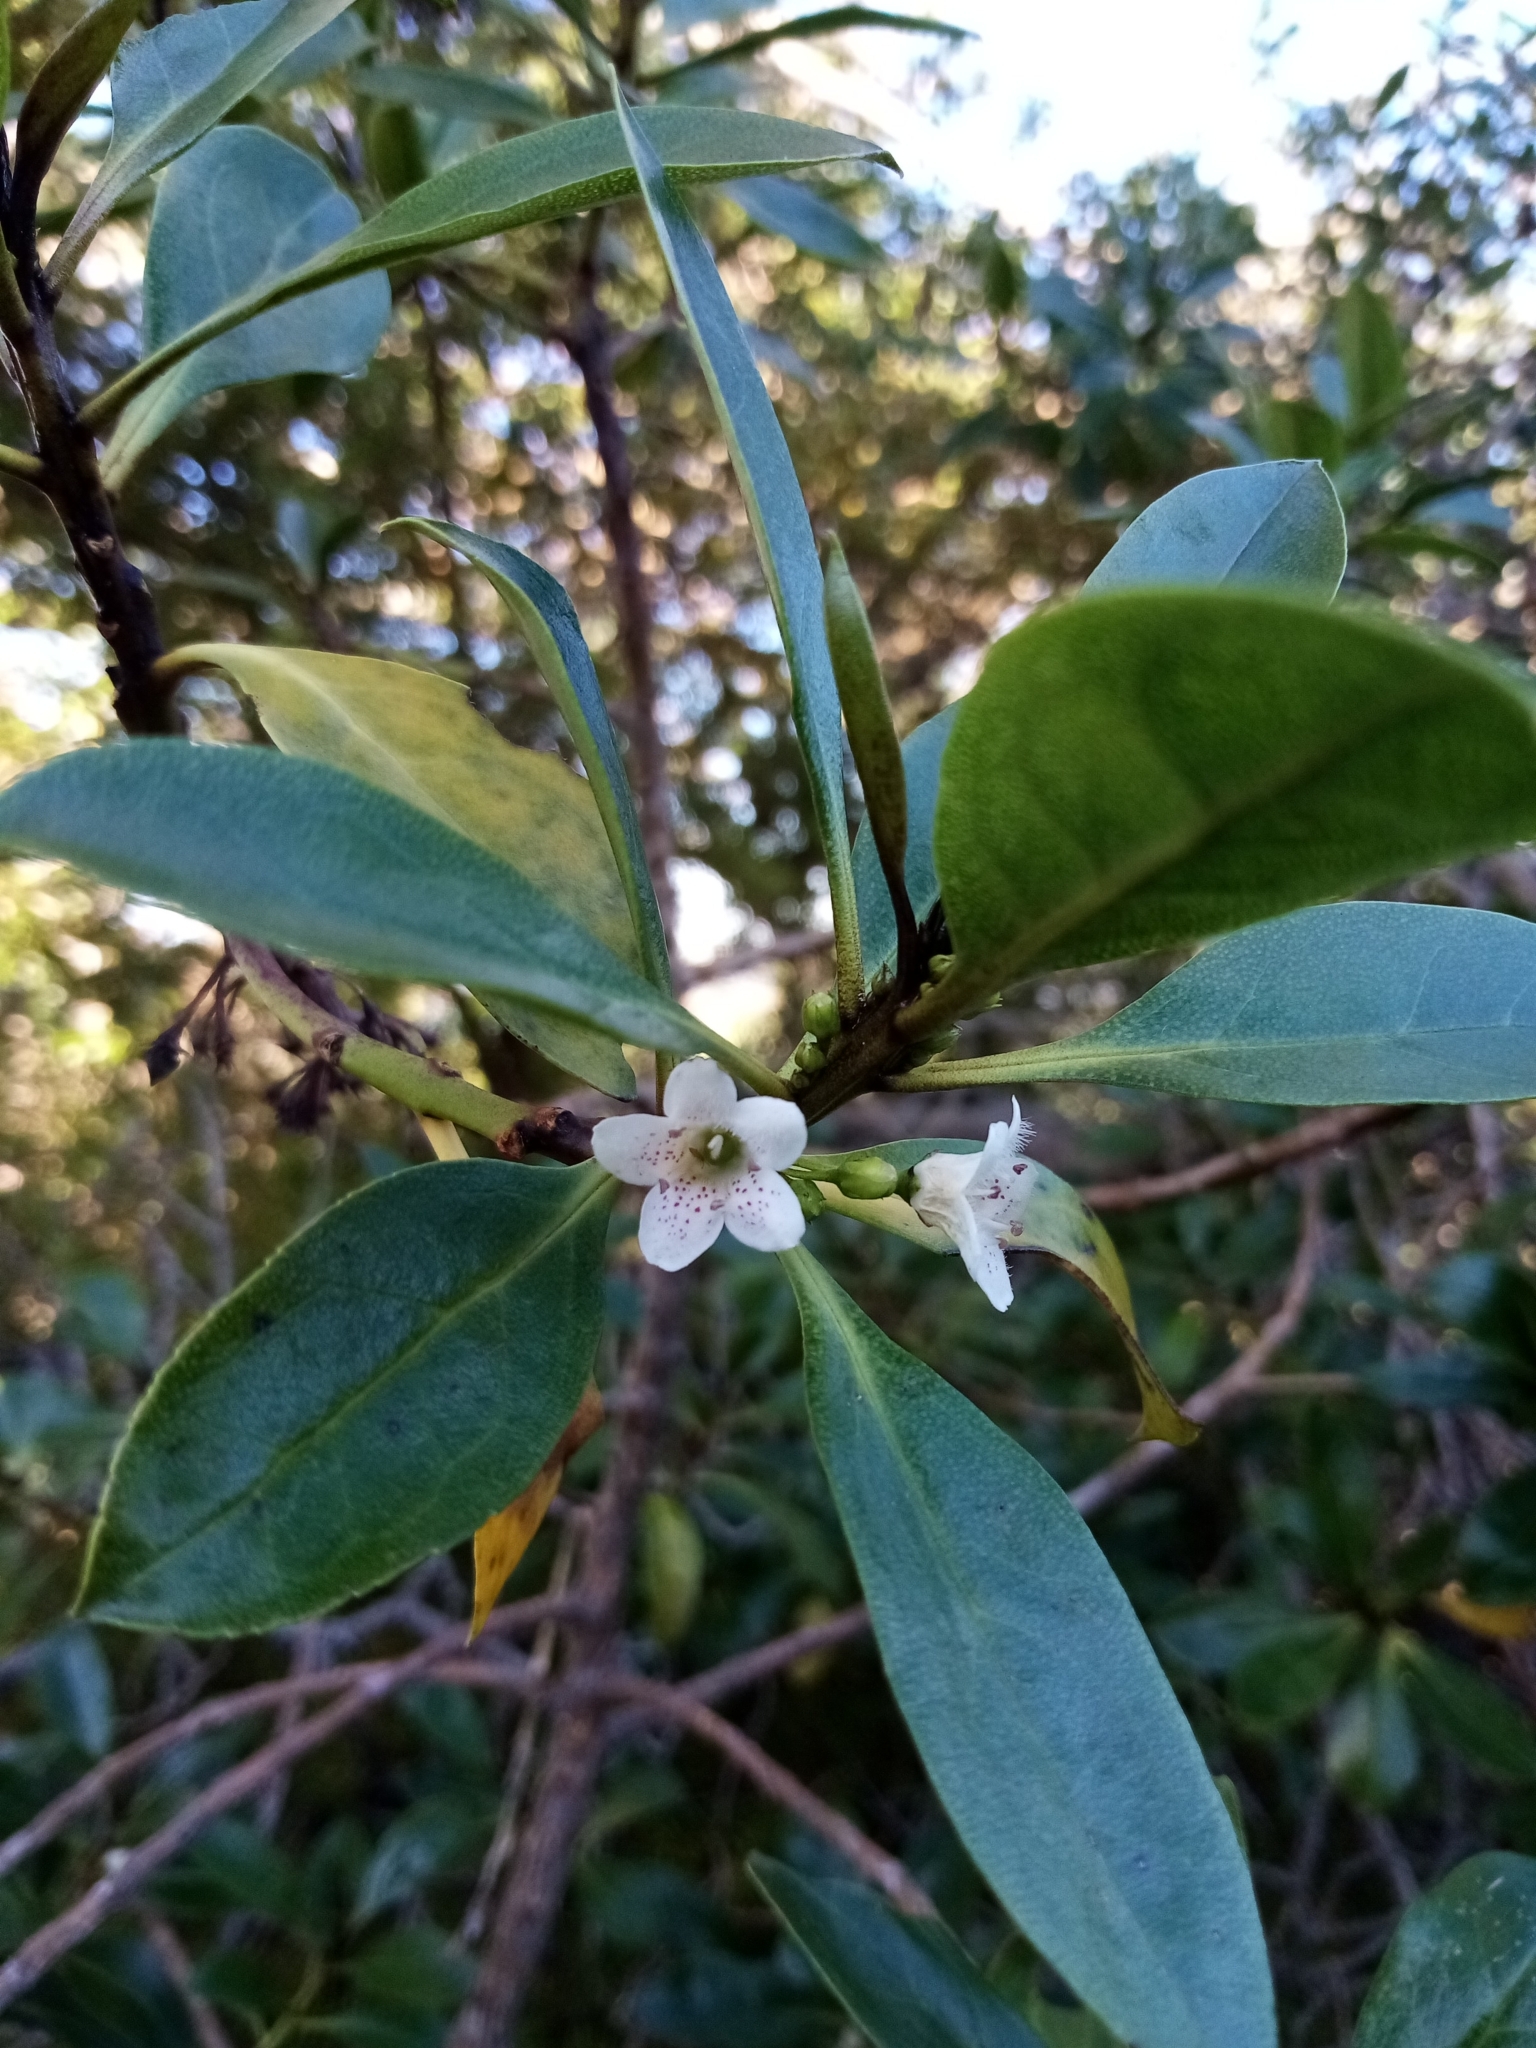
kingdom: Plantae
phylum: Tracheophyta
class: Magnoliopsida
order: Lamiales
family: Scrophulariaceae
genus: Myoporum
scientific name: Myoporum laetum
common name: Ngaio tree
